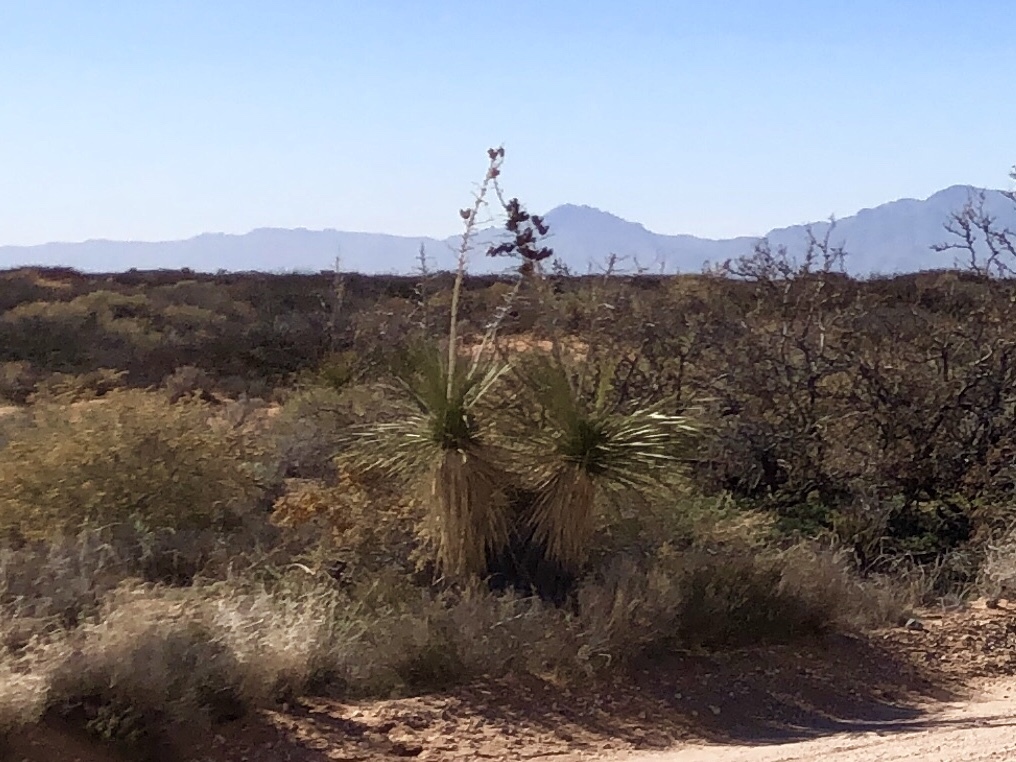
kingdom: Plantae
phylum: Tracheophyta
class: Liliopsida
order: Asparagales
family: Asparagaceae
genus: Yucca
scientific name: Yucca elata
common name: Palmella
